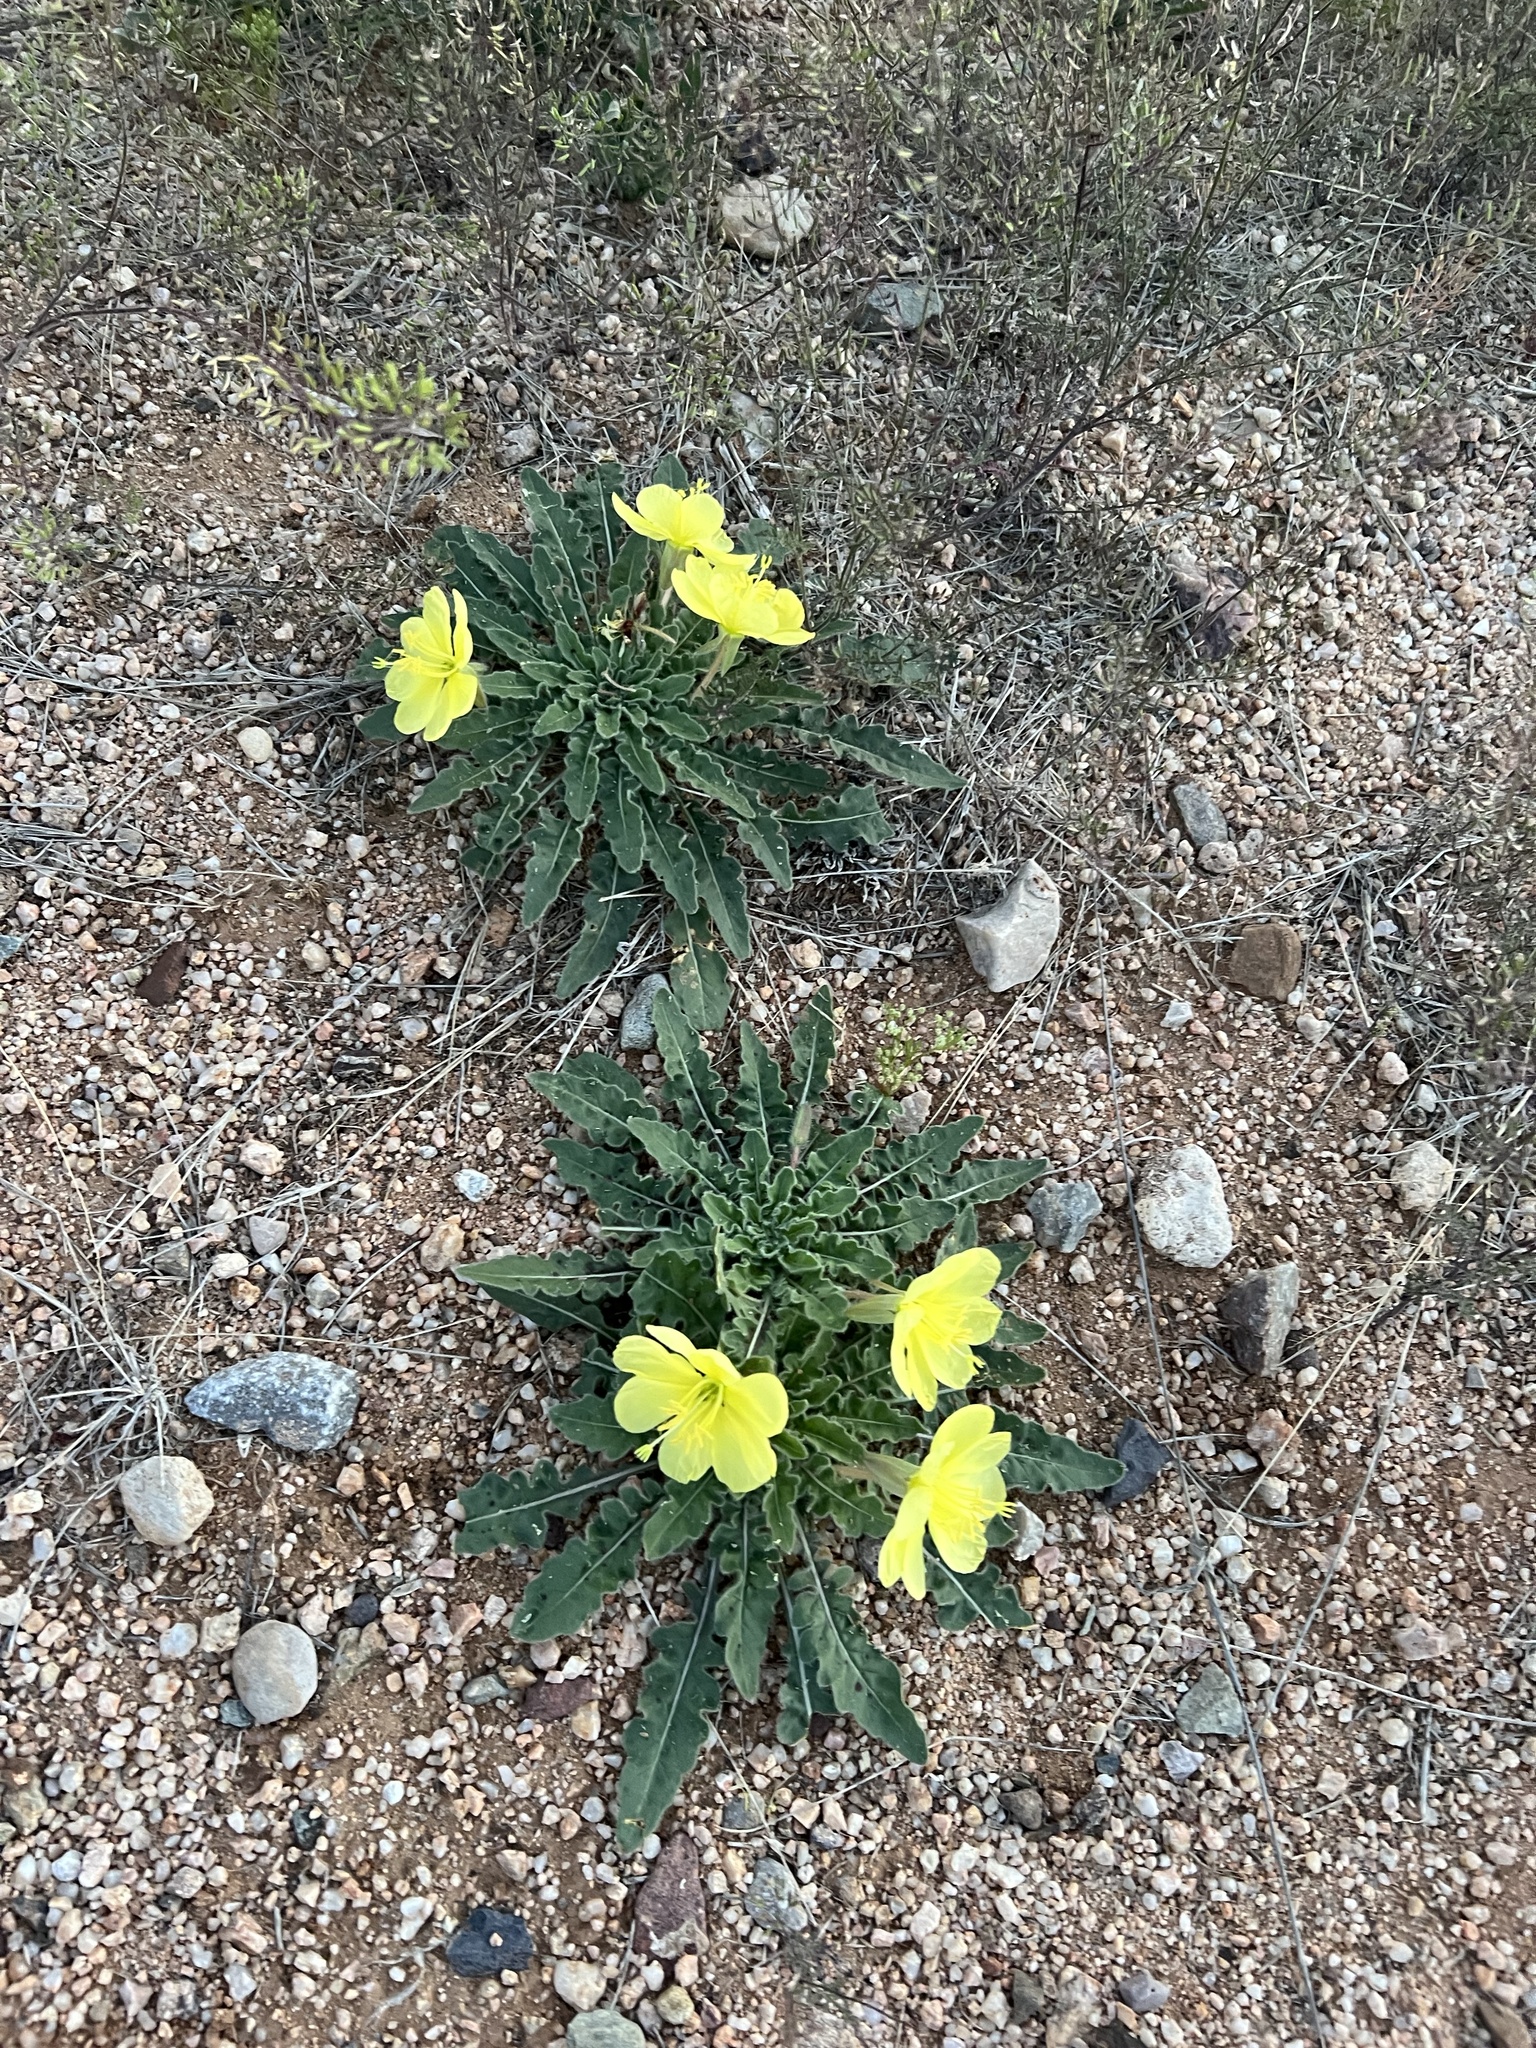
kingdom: Plantae
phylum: Tracheophyta
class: Magnoliopsida
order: Myrtales
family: Onagraceae
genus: Oenothera
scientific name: Oenothera primiveris
